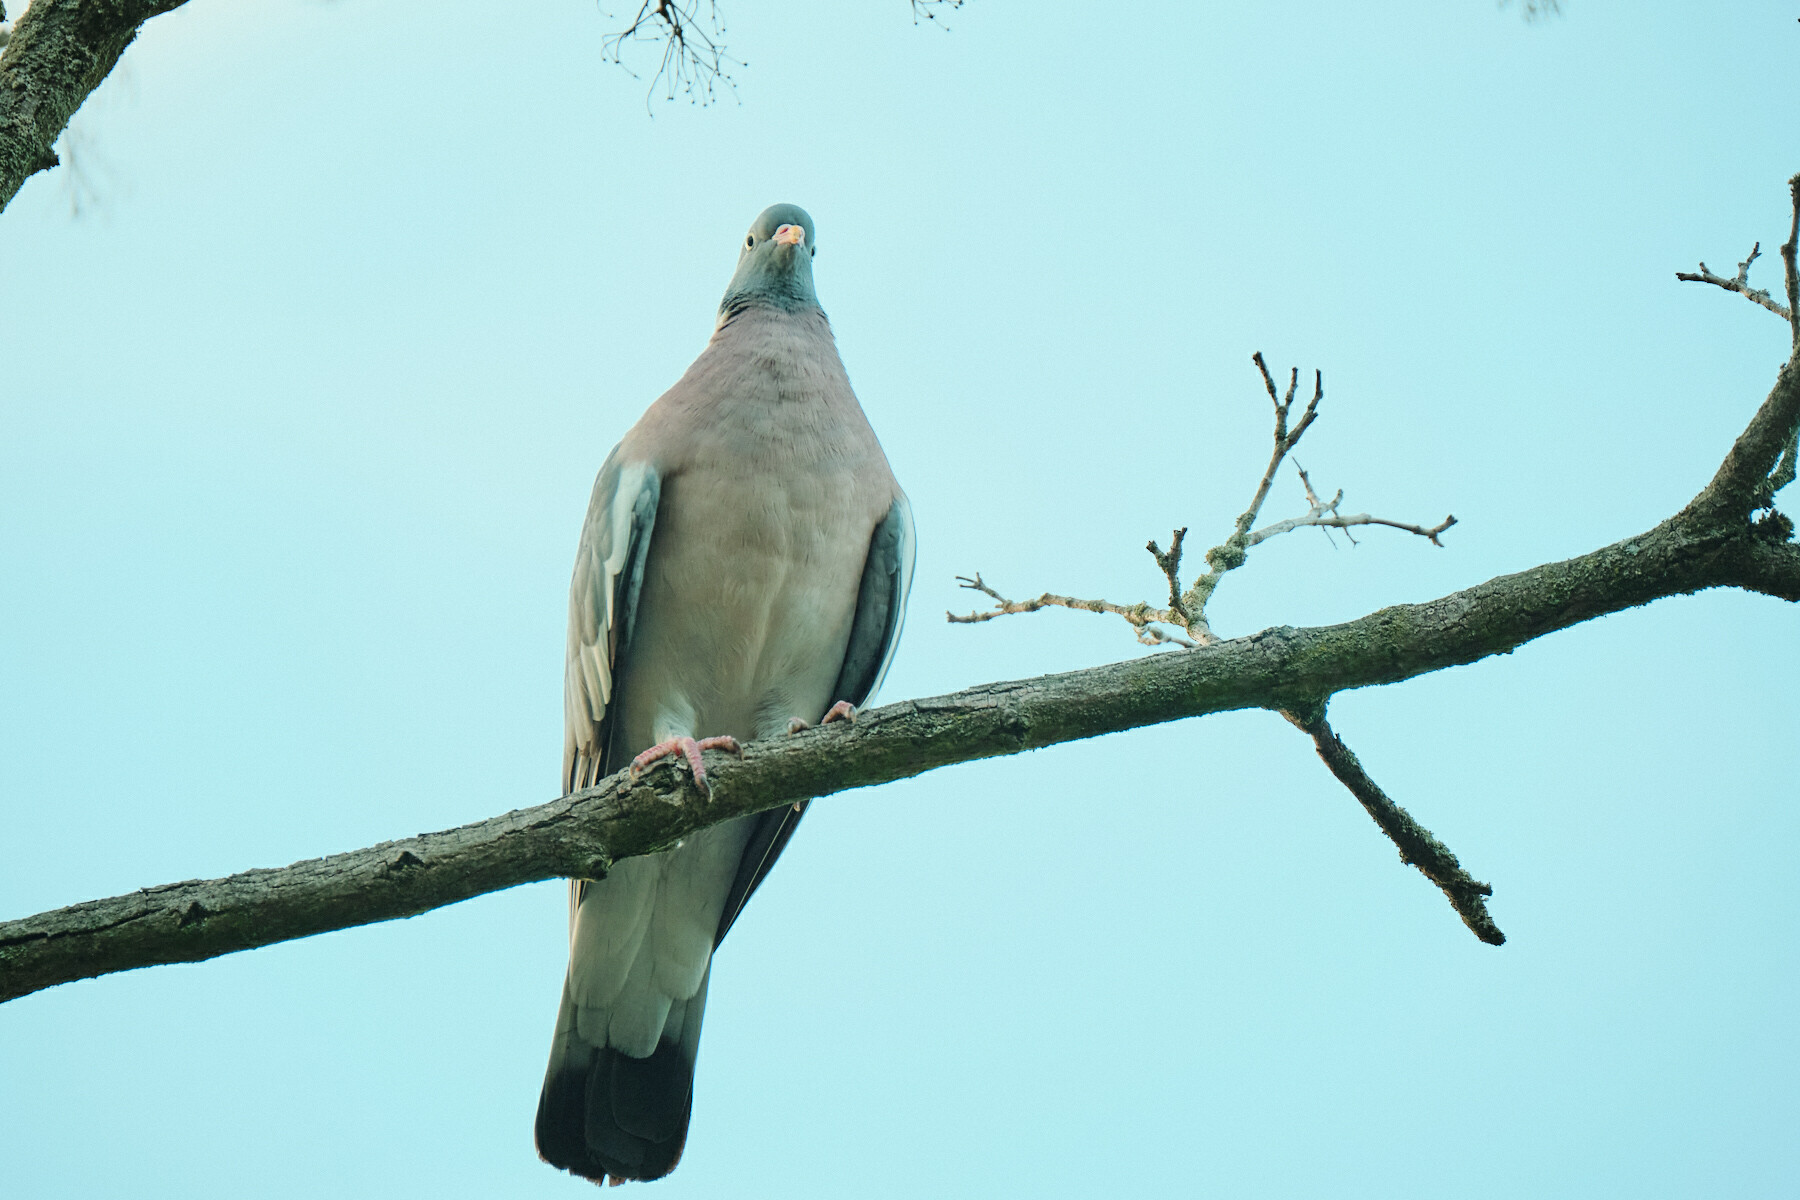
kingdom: Animalia
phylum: Chordata
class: Aves
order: Columbiformes
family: Columbidae
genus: Columba
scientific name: Columba palumbus
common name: Common wood pigeon
